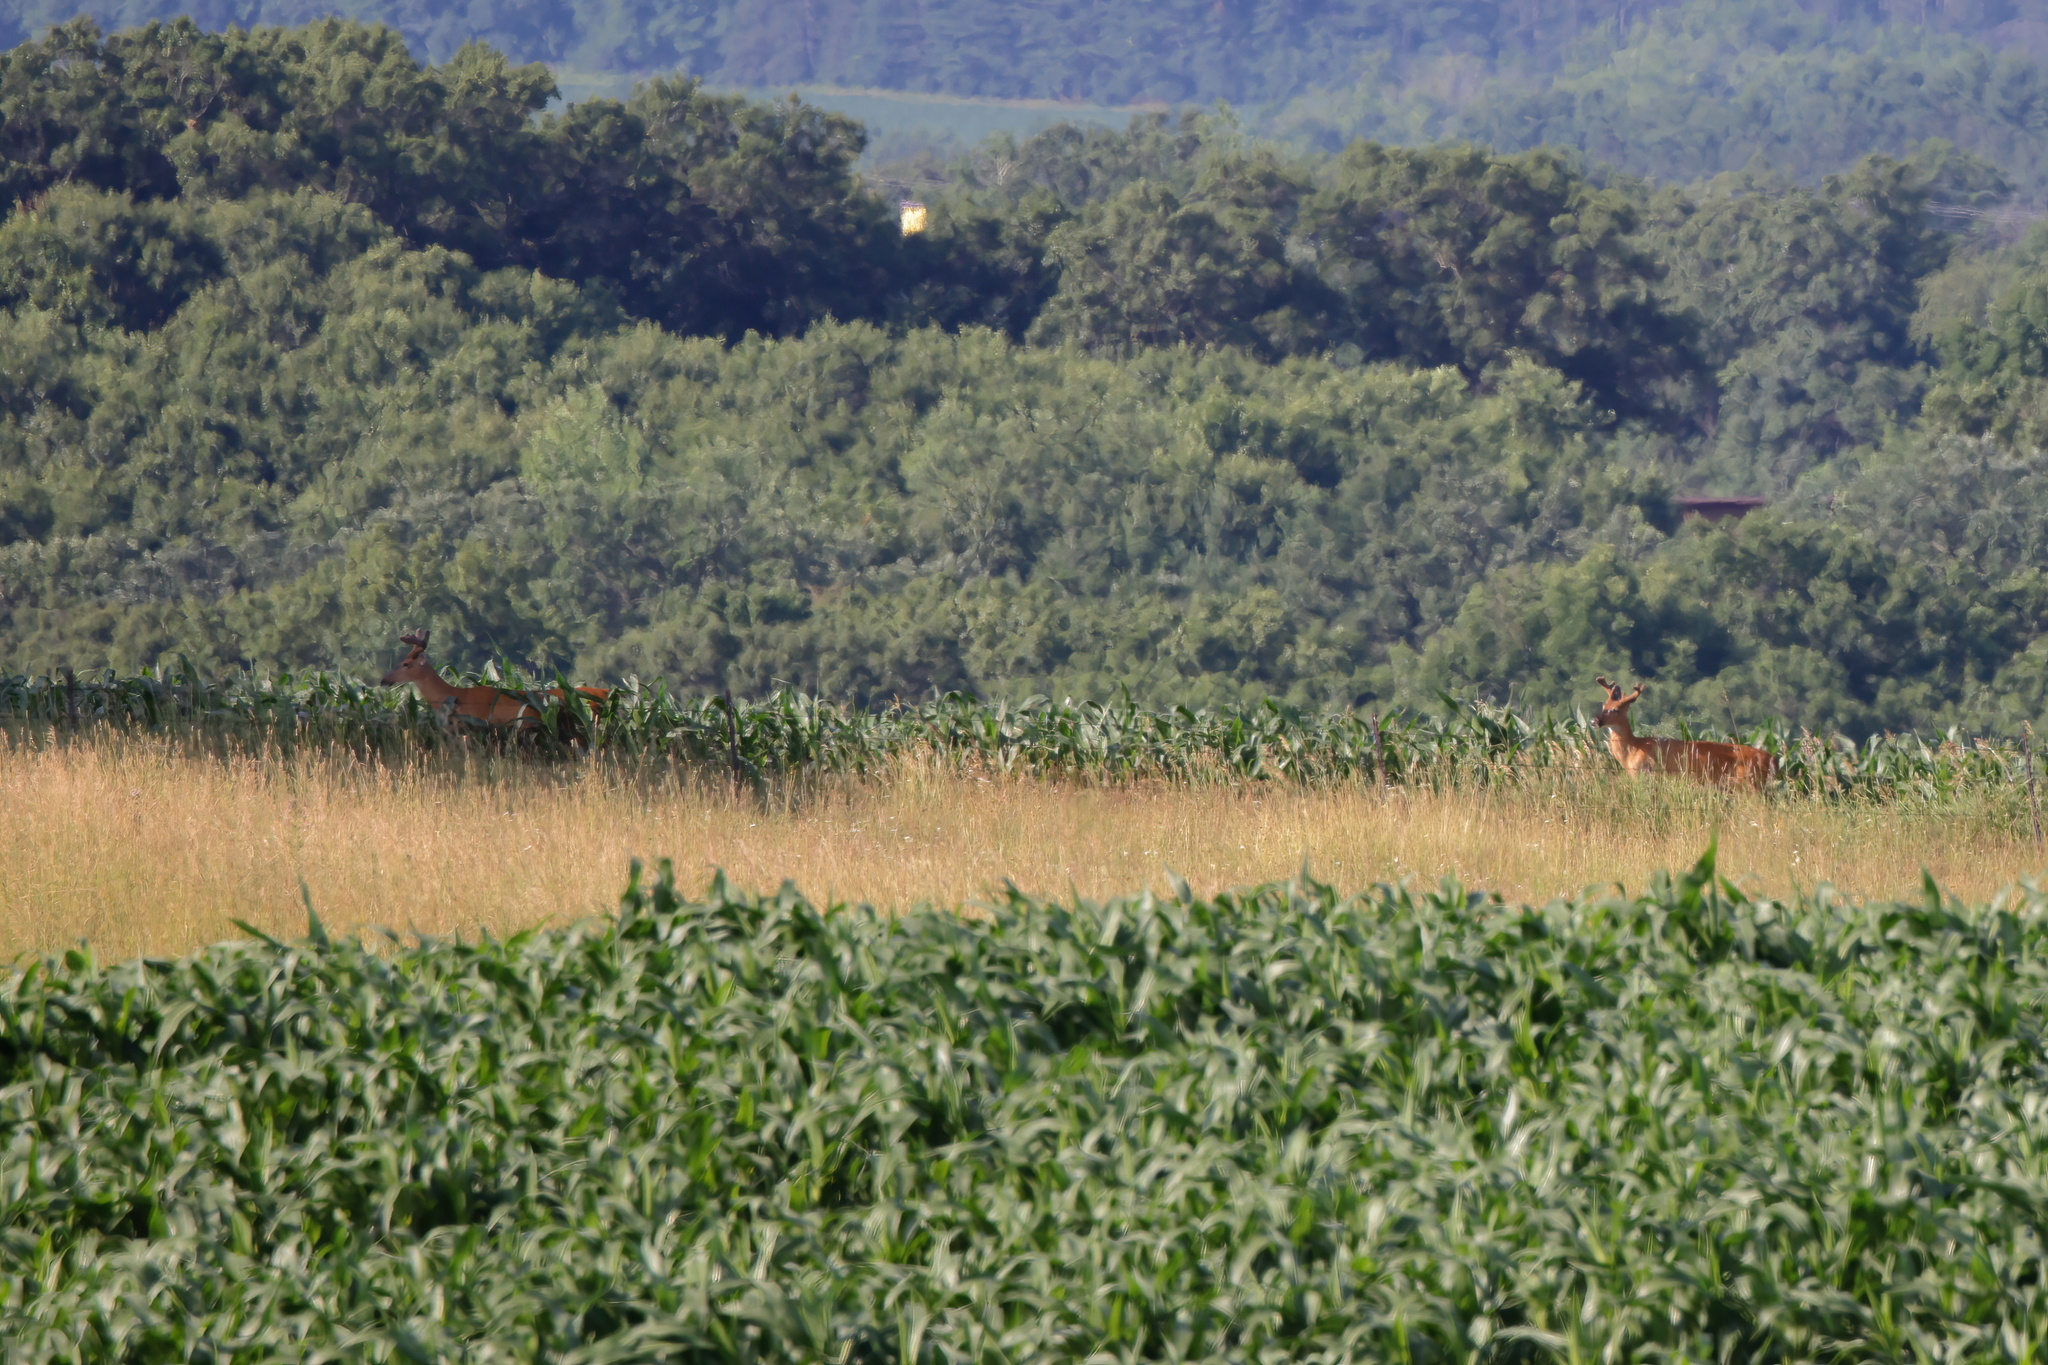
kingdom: Animalia
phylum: Chordata
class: Mammalia
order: Artiodactyla
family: Cervidae
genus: Odocoileus
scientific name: Odocoileus virginianus
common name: White-tailed deer
